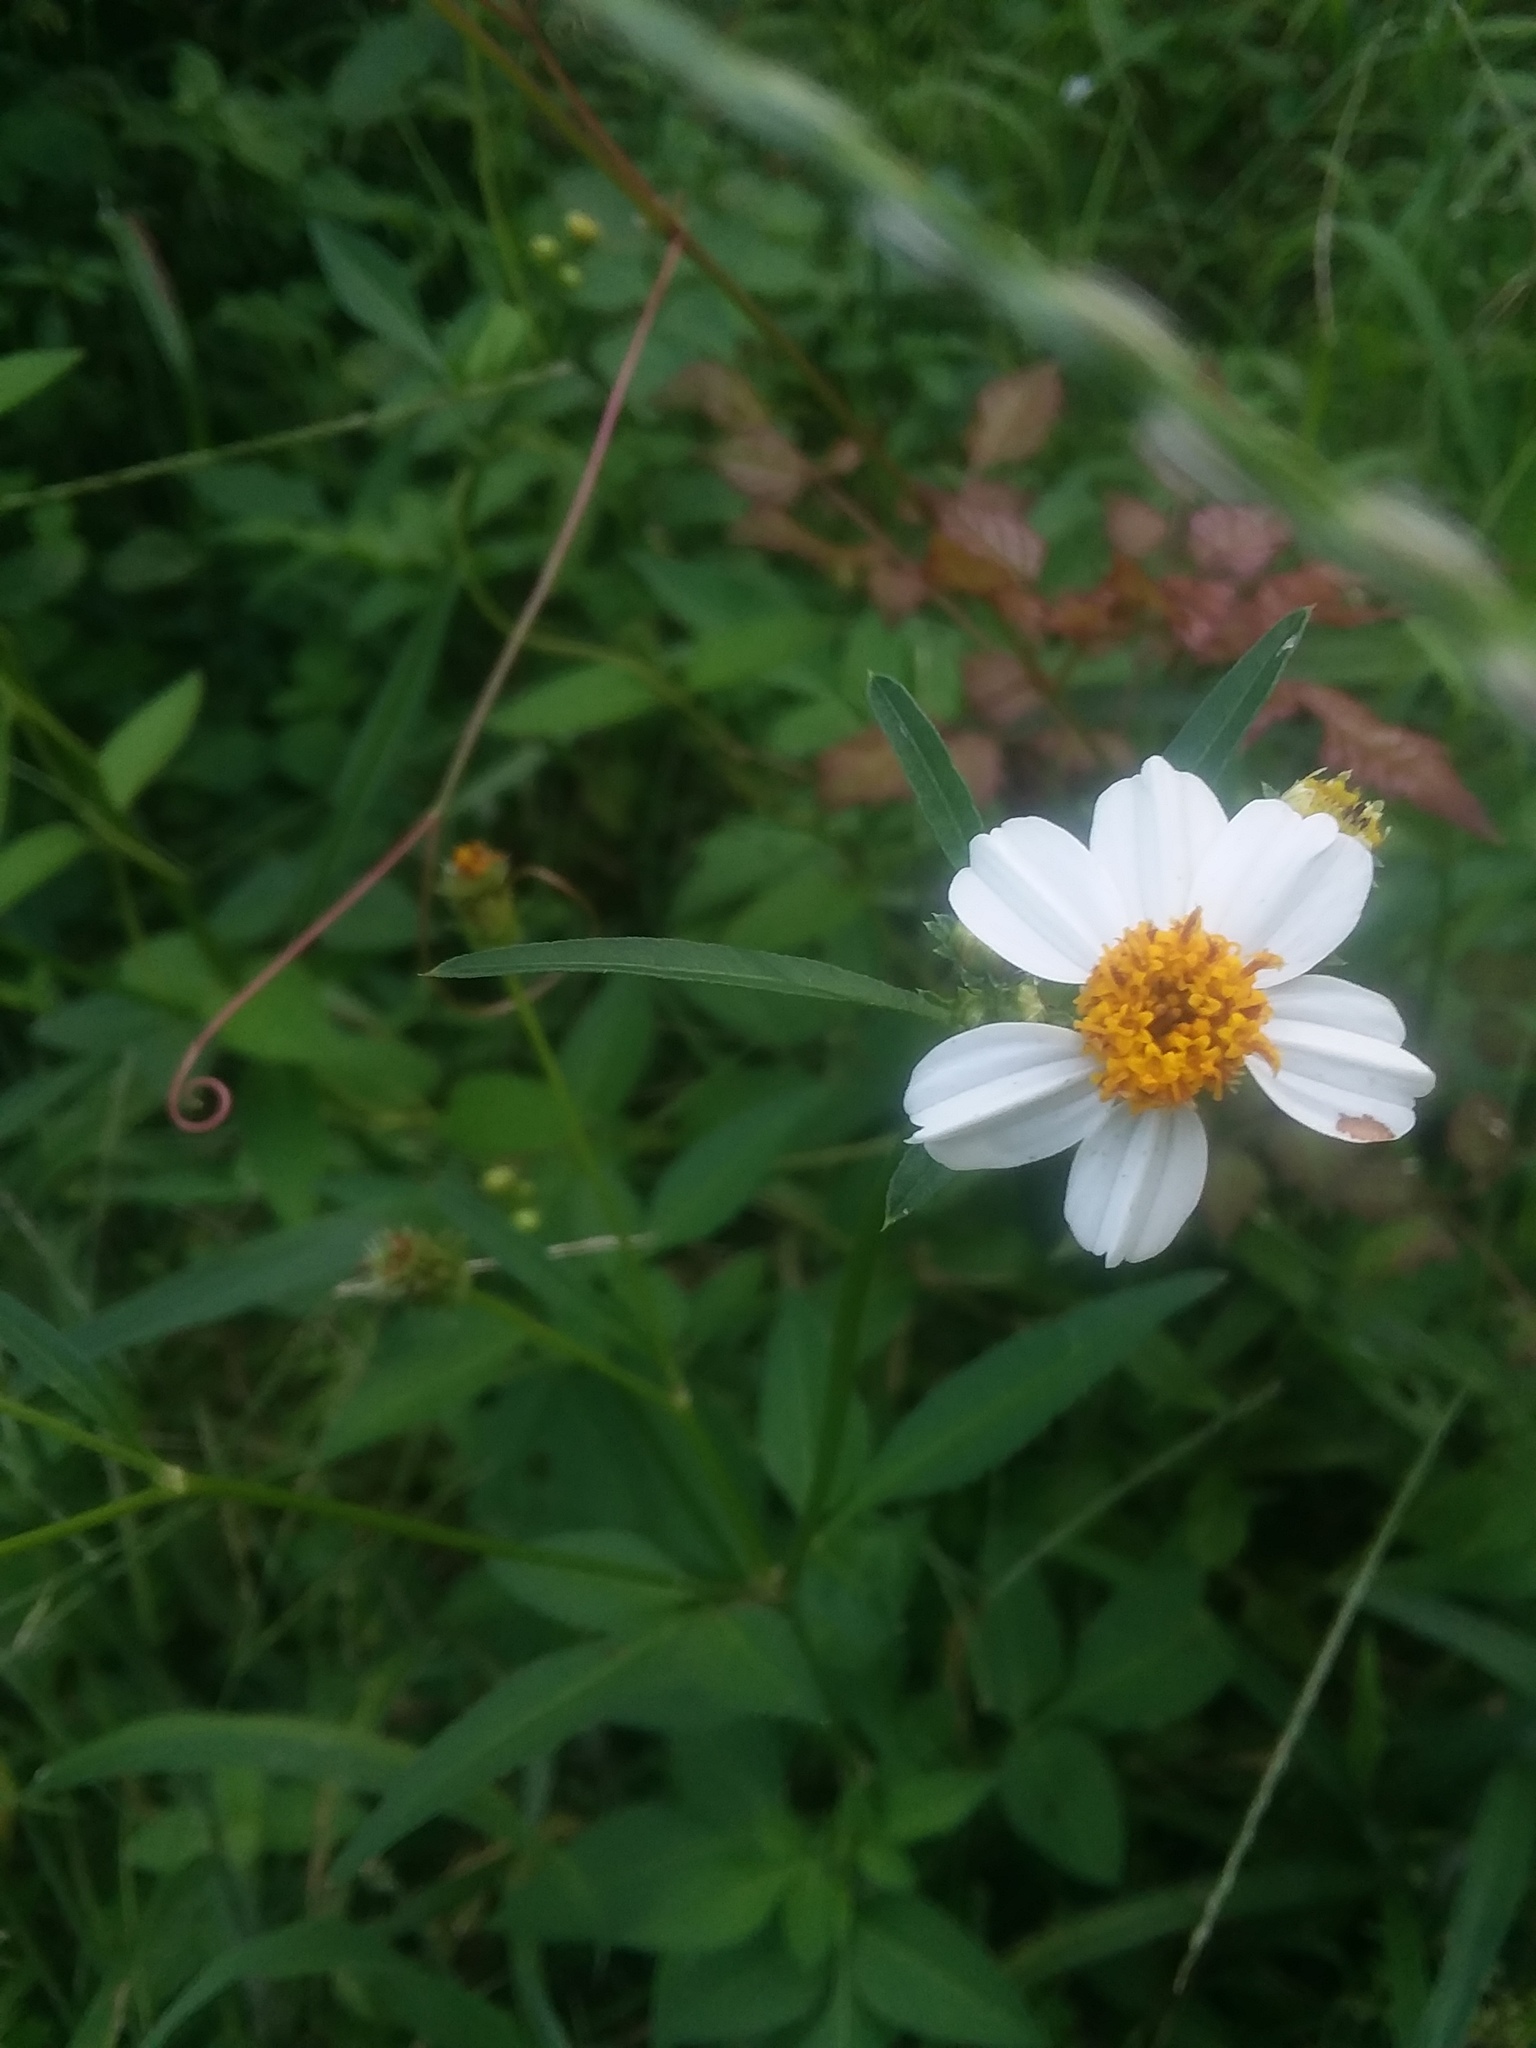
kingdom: Plantae
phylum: Tracheophyta
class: Magnoliopsida
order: Asterales
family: Asteraceae
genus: Bidens
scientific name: Bidens alba
